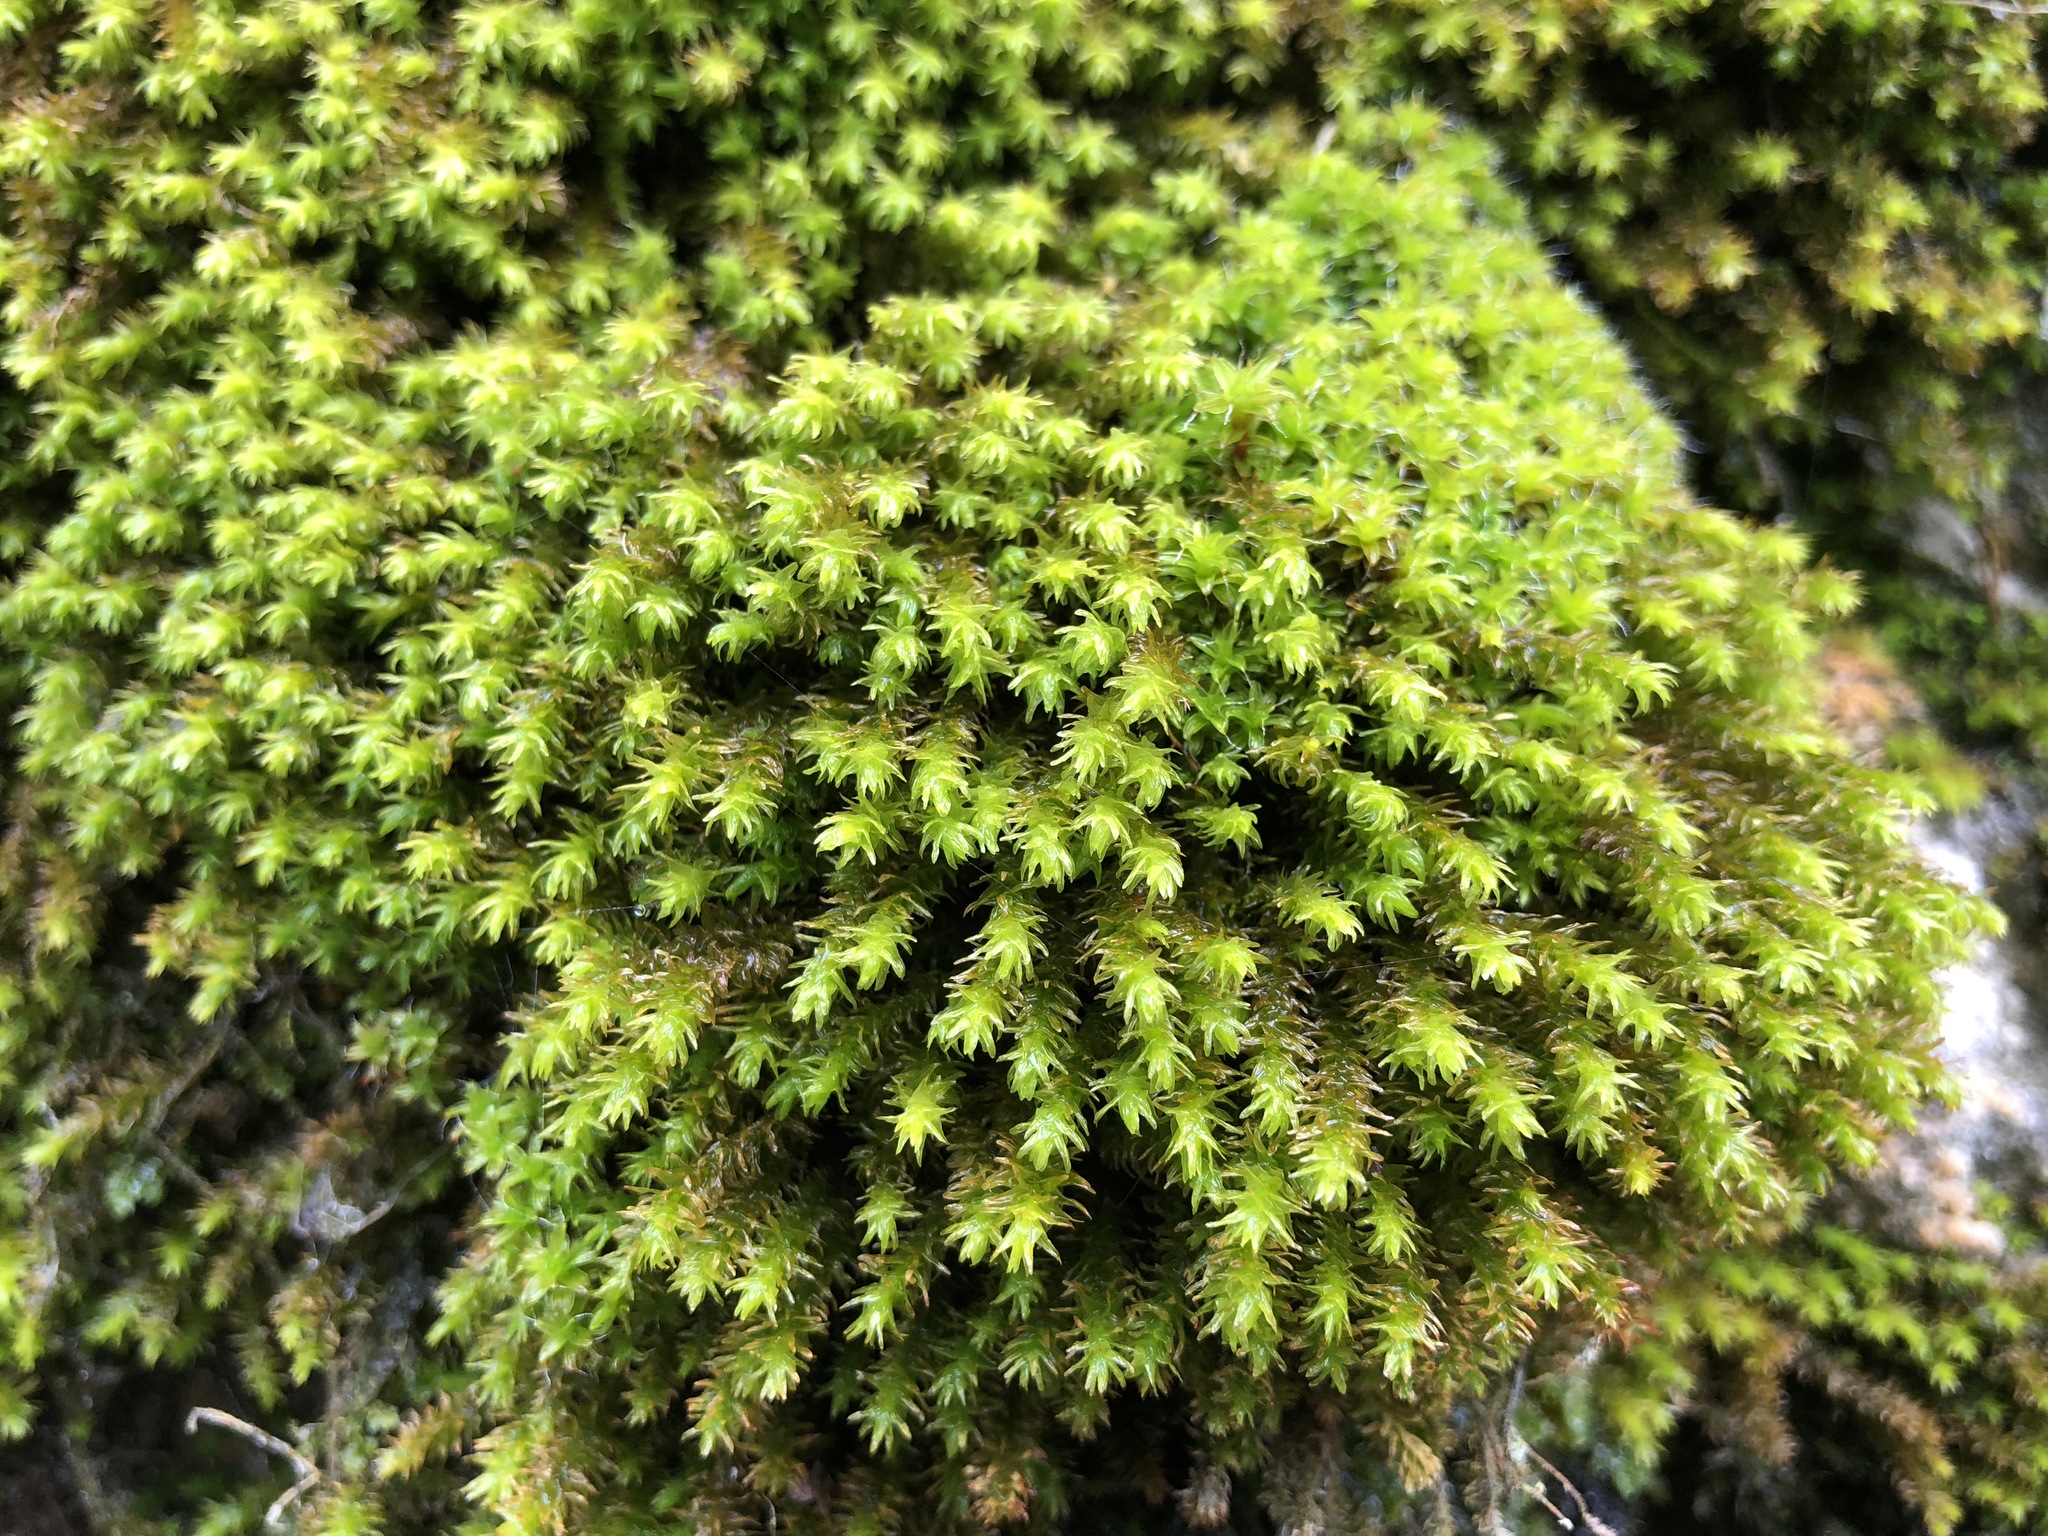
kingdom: Plantae
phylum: Bryophyta
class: Bryopsida
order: Hypnales
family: Anomodontaceae
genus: Anomodon
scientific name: Anomodon viticulosus
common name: Tall anomodon
